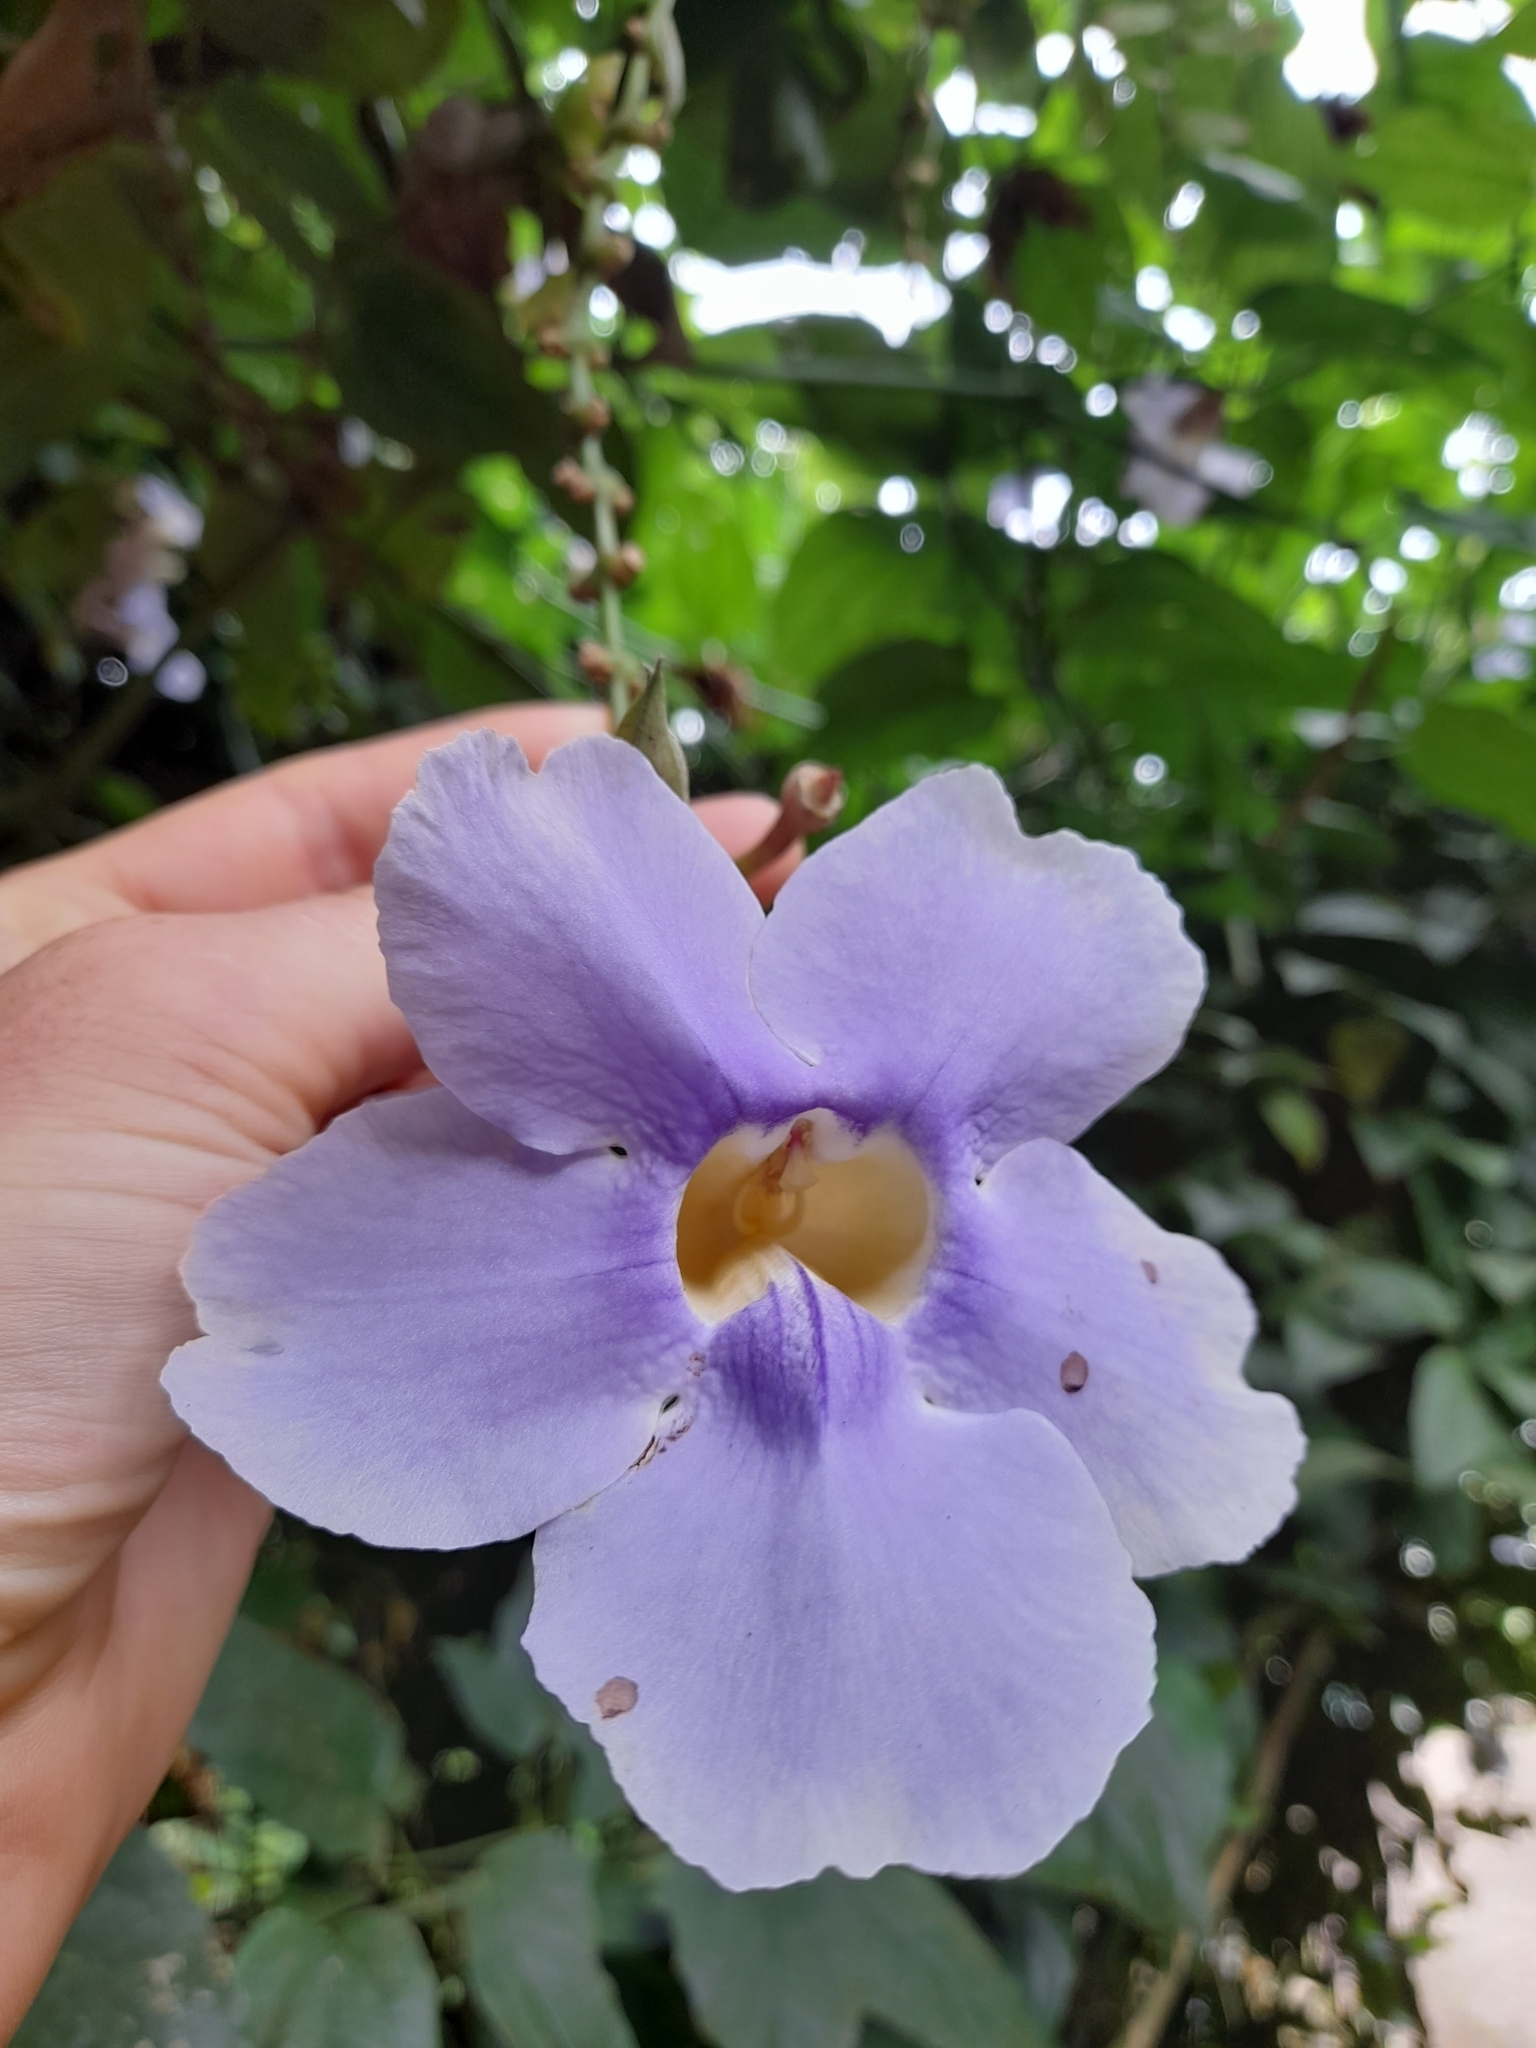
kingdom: Plantae
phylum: Tracheophyta
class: Magnoliopsida
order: Lamiales
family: Acanthaceae
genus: Thunbergia
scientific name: Thunbergia grandiflora
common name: Bengal trumpet
